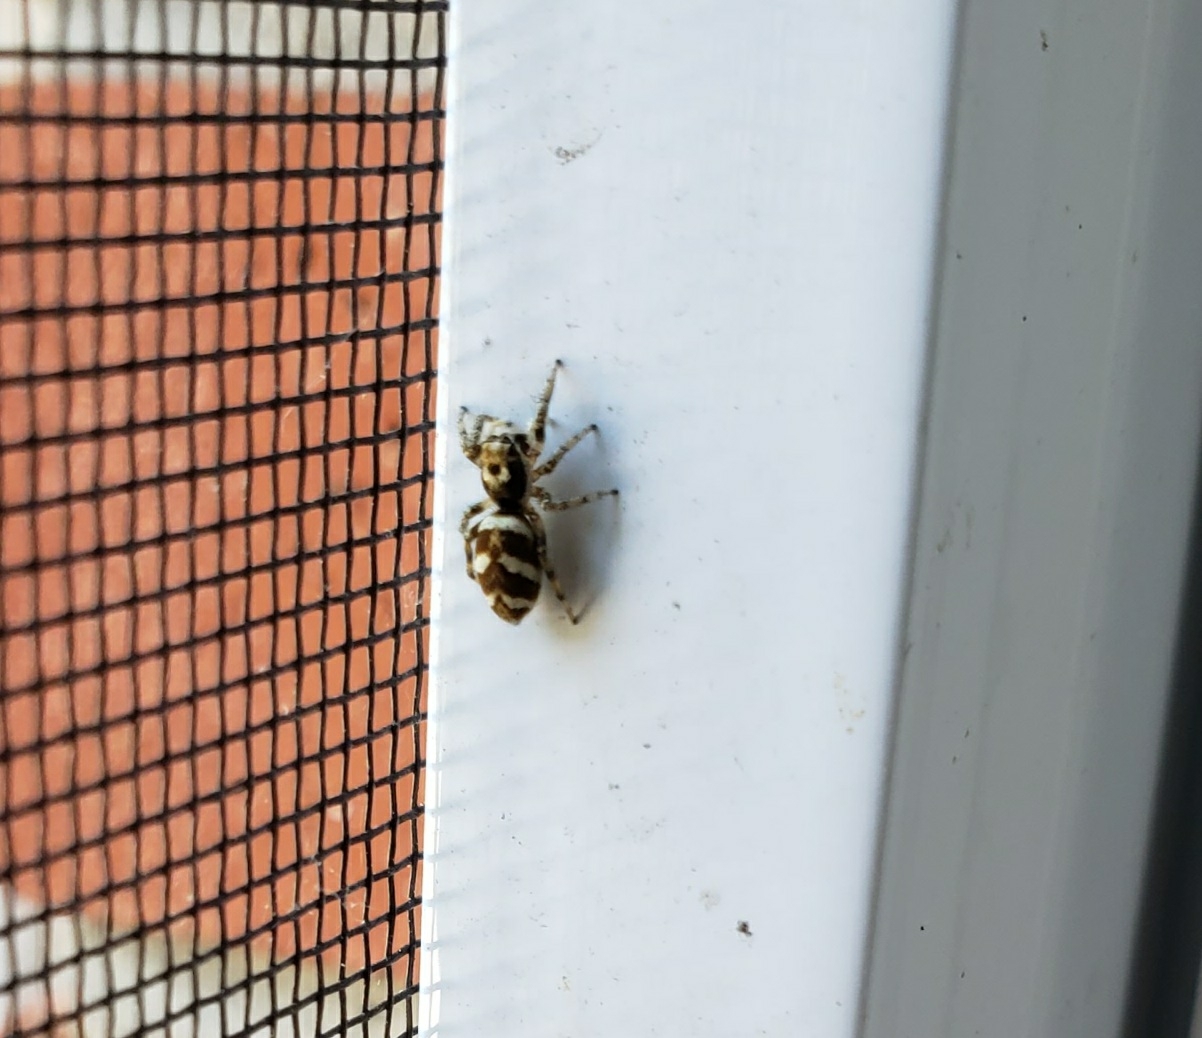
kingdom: Animalia
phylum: Arthropoda
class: Arachnida
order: Araneae
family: Salticidae
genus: Salticus
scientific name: Salticus scenicus
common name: Zebra jumper
